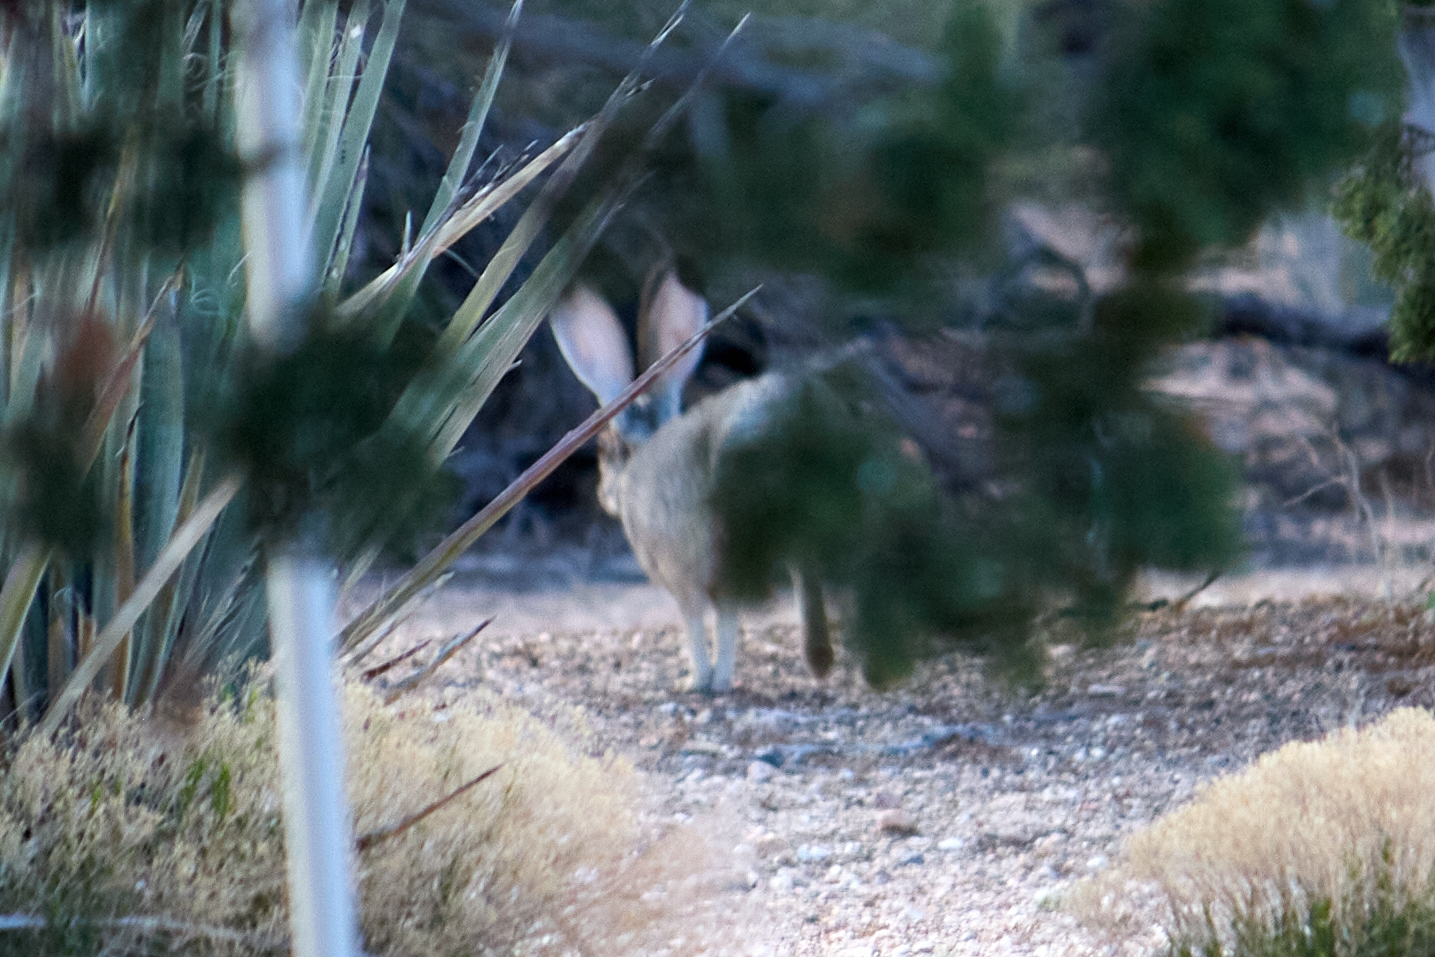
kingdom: Animalia
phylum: Chordata
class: Mammalia
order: Lagomorpha
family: Leporidae
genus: Lepus
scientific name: Lepus californicus
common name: Black-tailed jackrabbit
